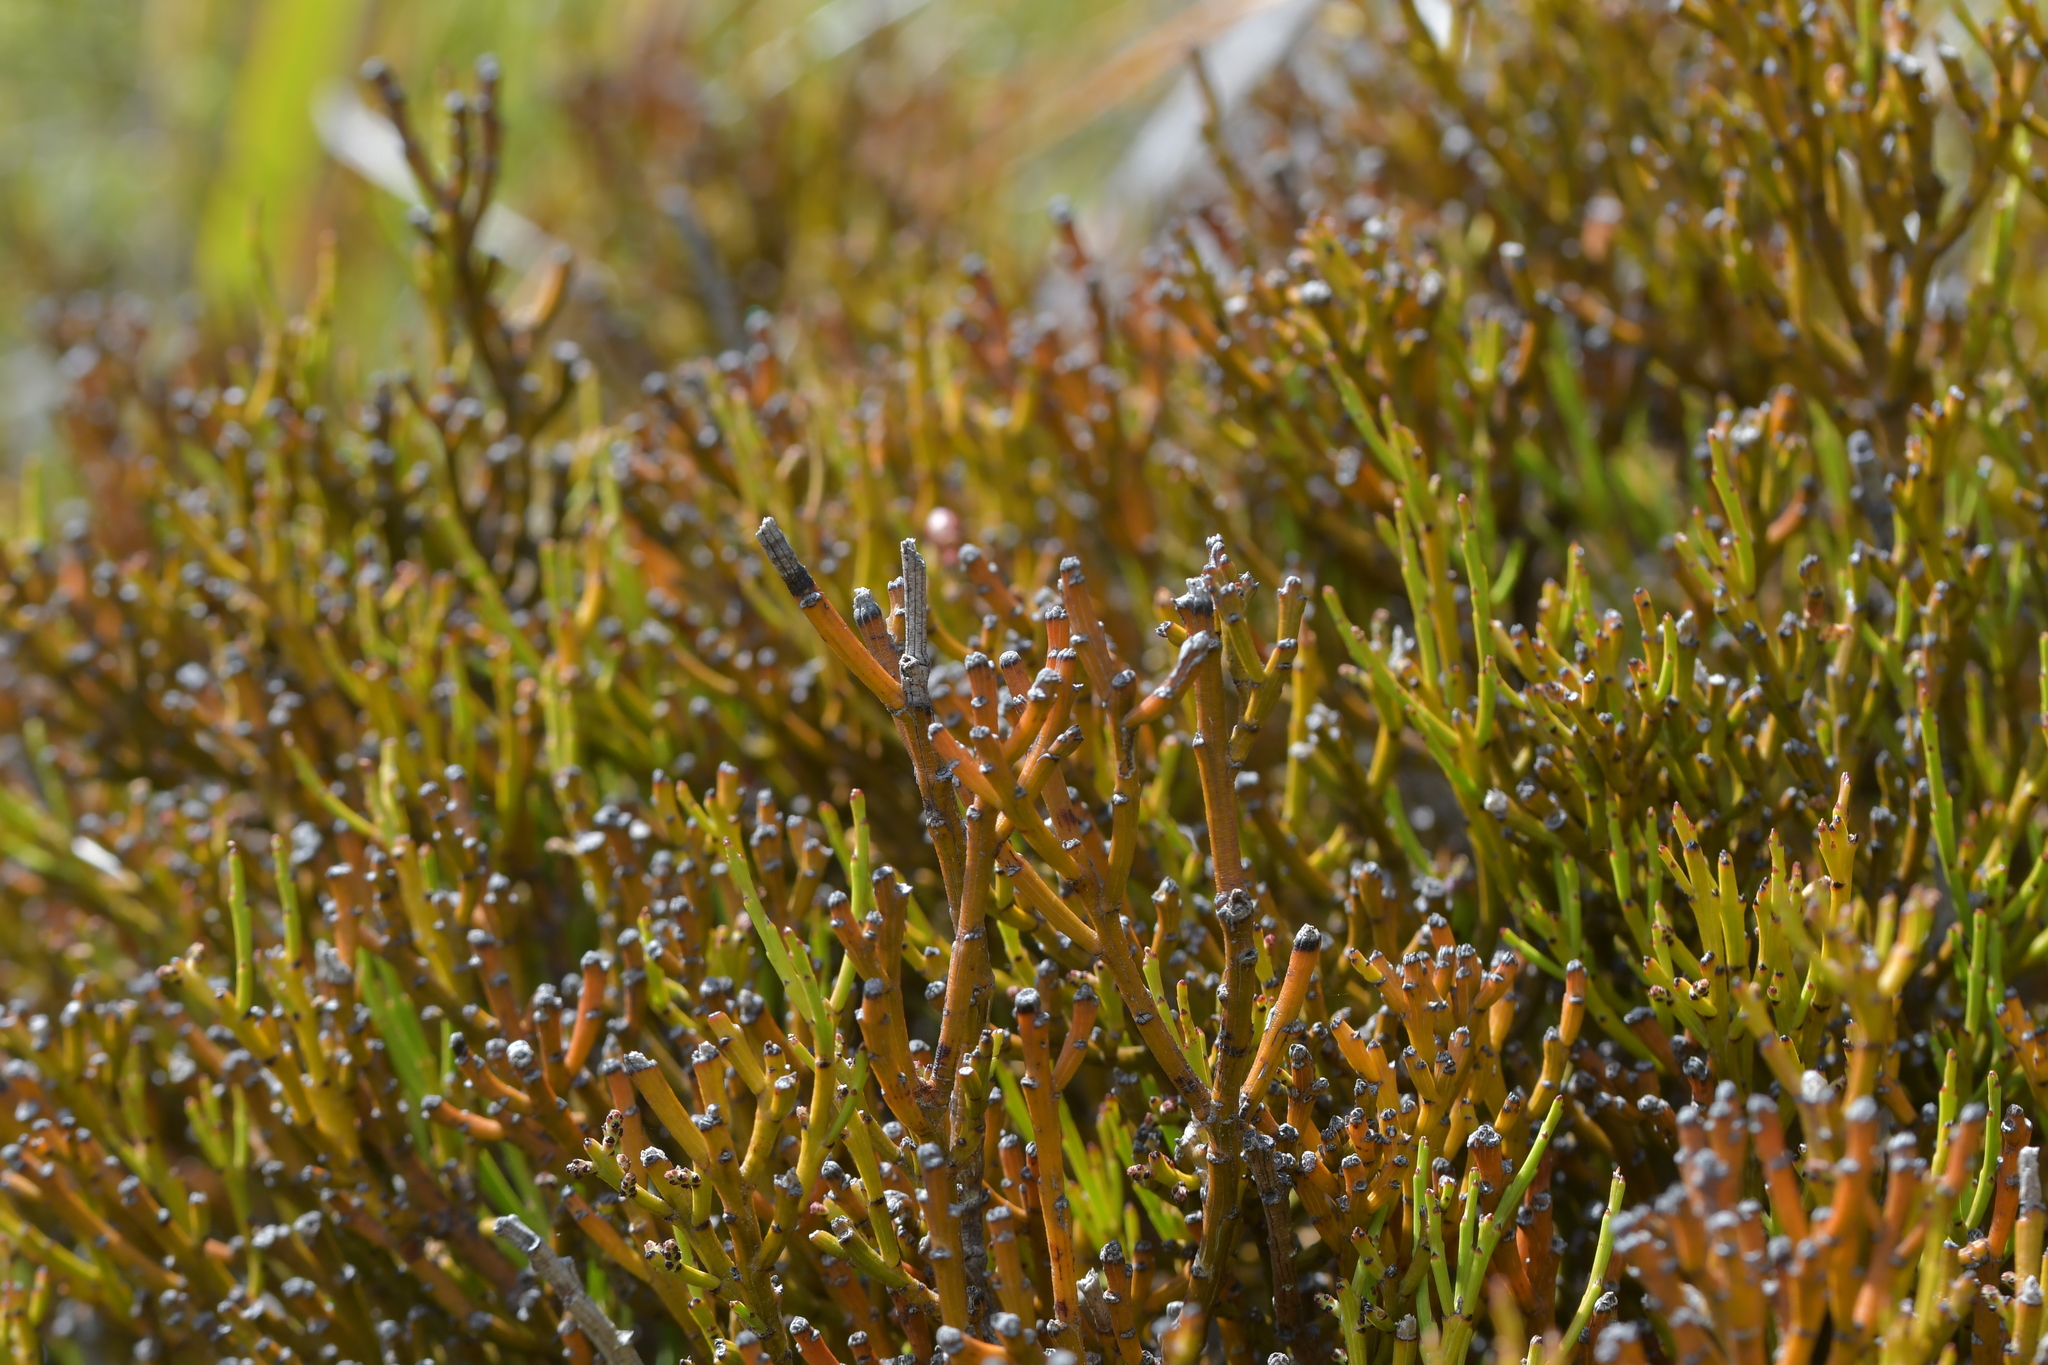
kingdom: Plantae
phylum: Tracheophyta
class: Magnoliopsida
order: Santalales
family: Santalaceae
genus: Exocarpos
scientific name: Exocarpos bidwillii
